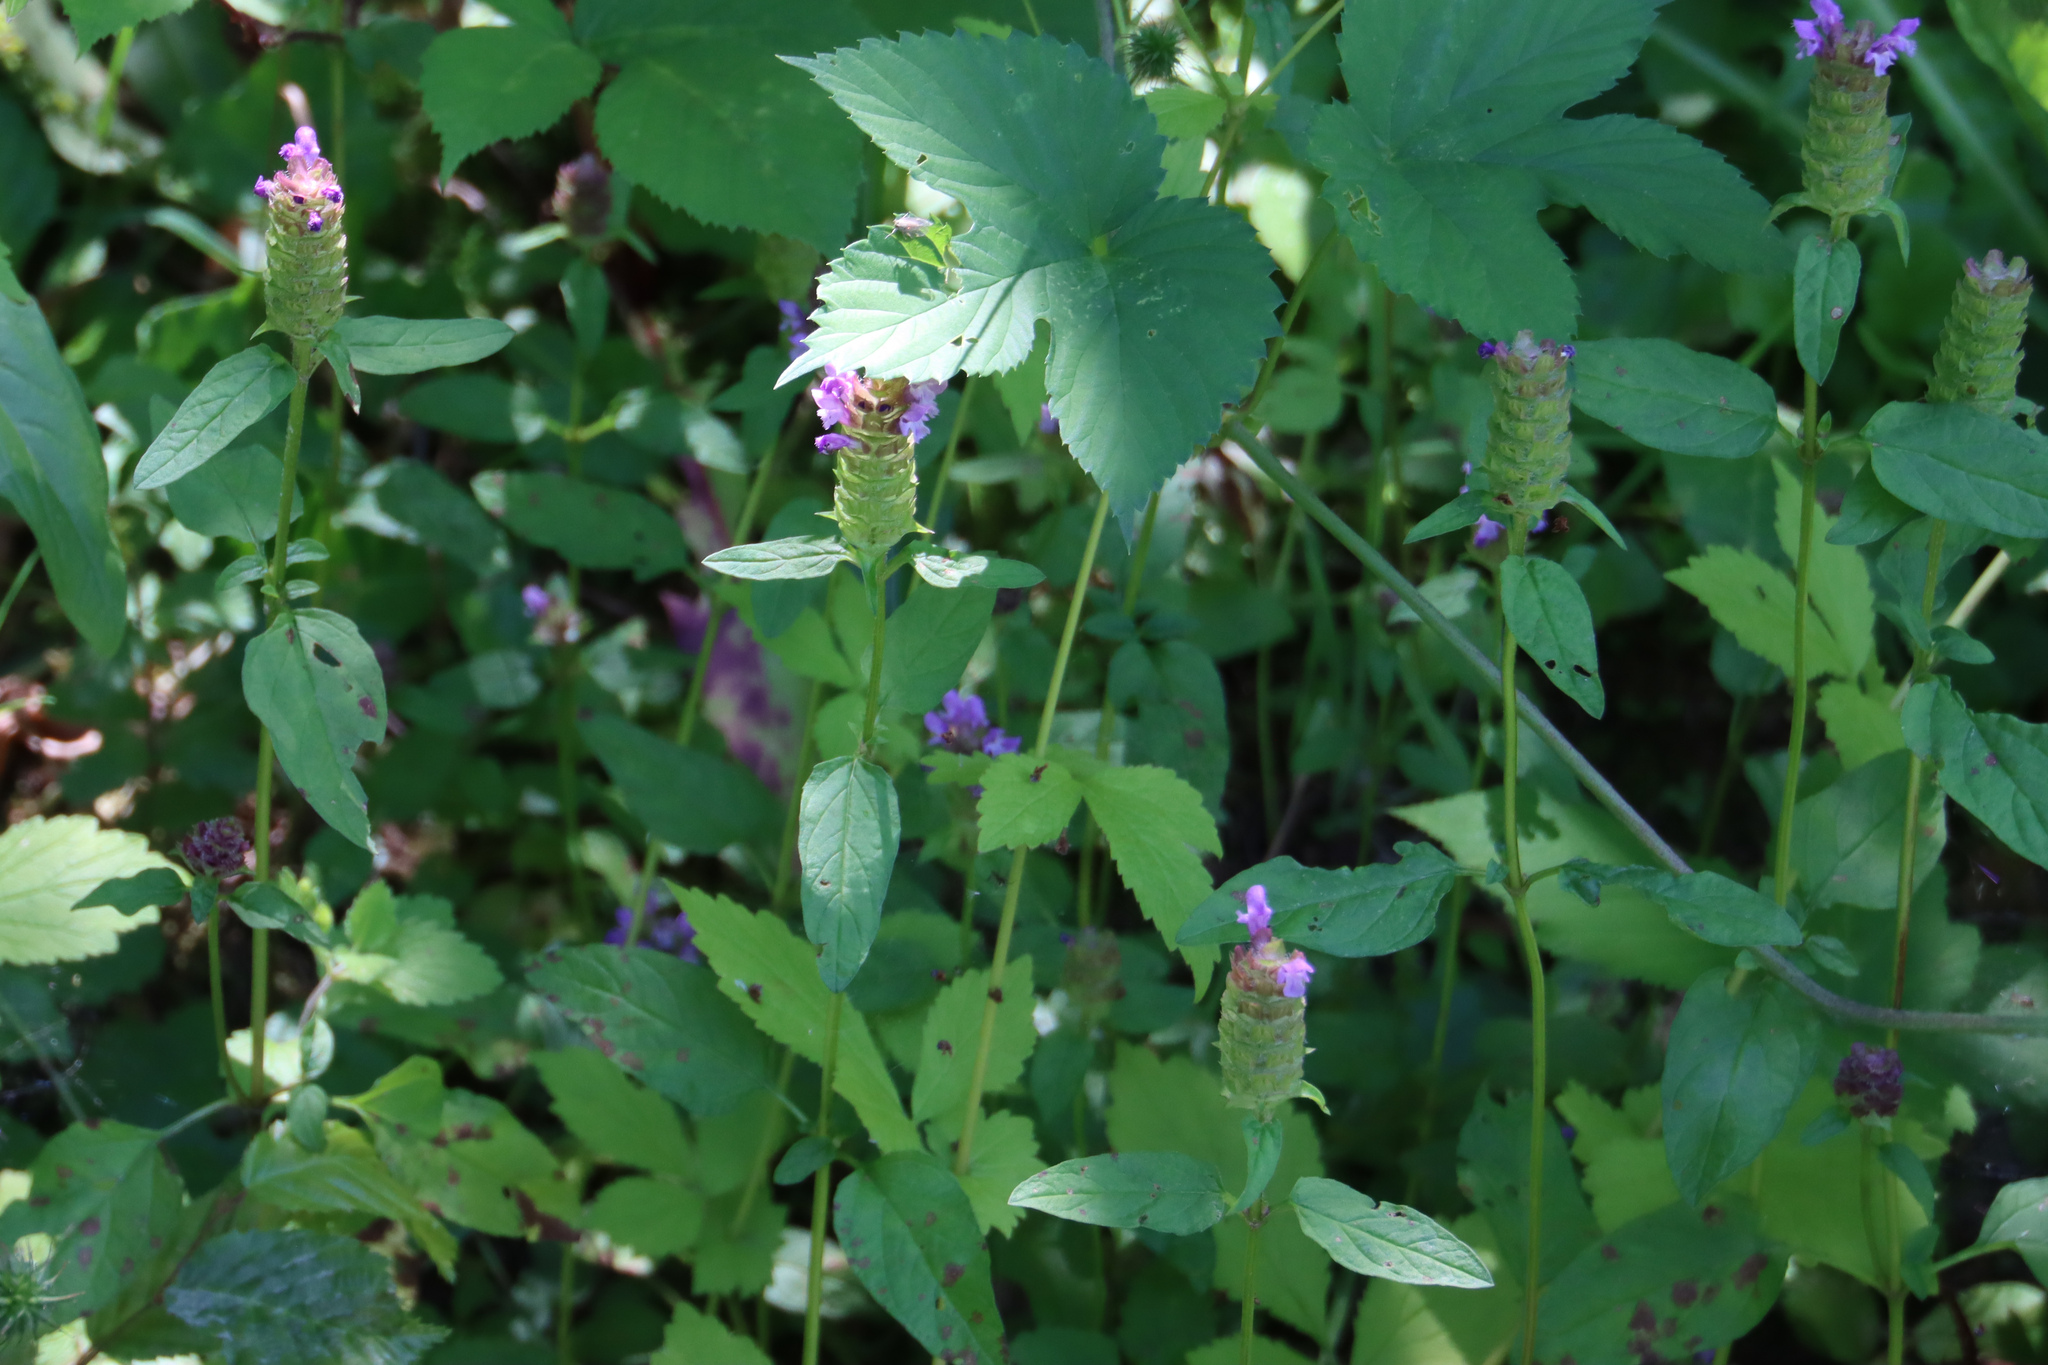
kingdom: Plantae
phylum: Tracheophyta
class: Magnoliopsida
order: Lamiales
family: Lamiaceae
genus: Prunella
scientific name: Prunella vulgaris
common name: Heal-all
